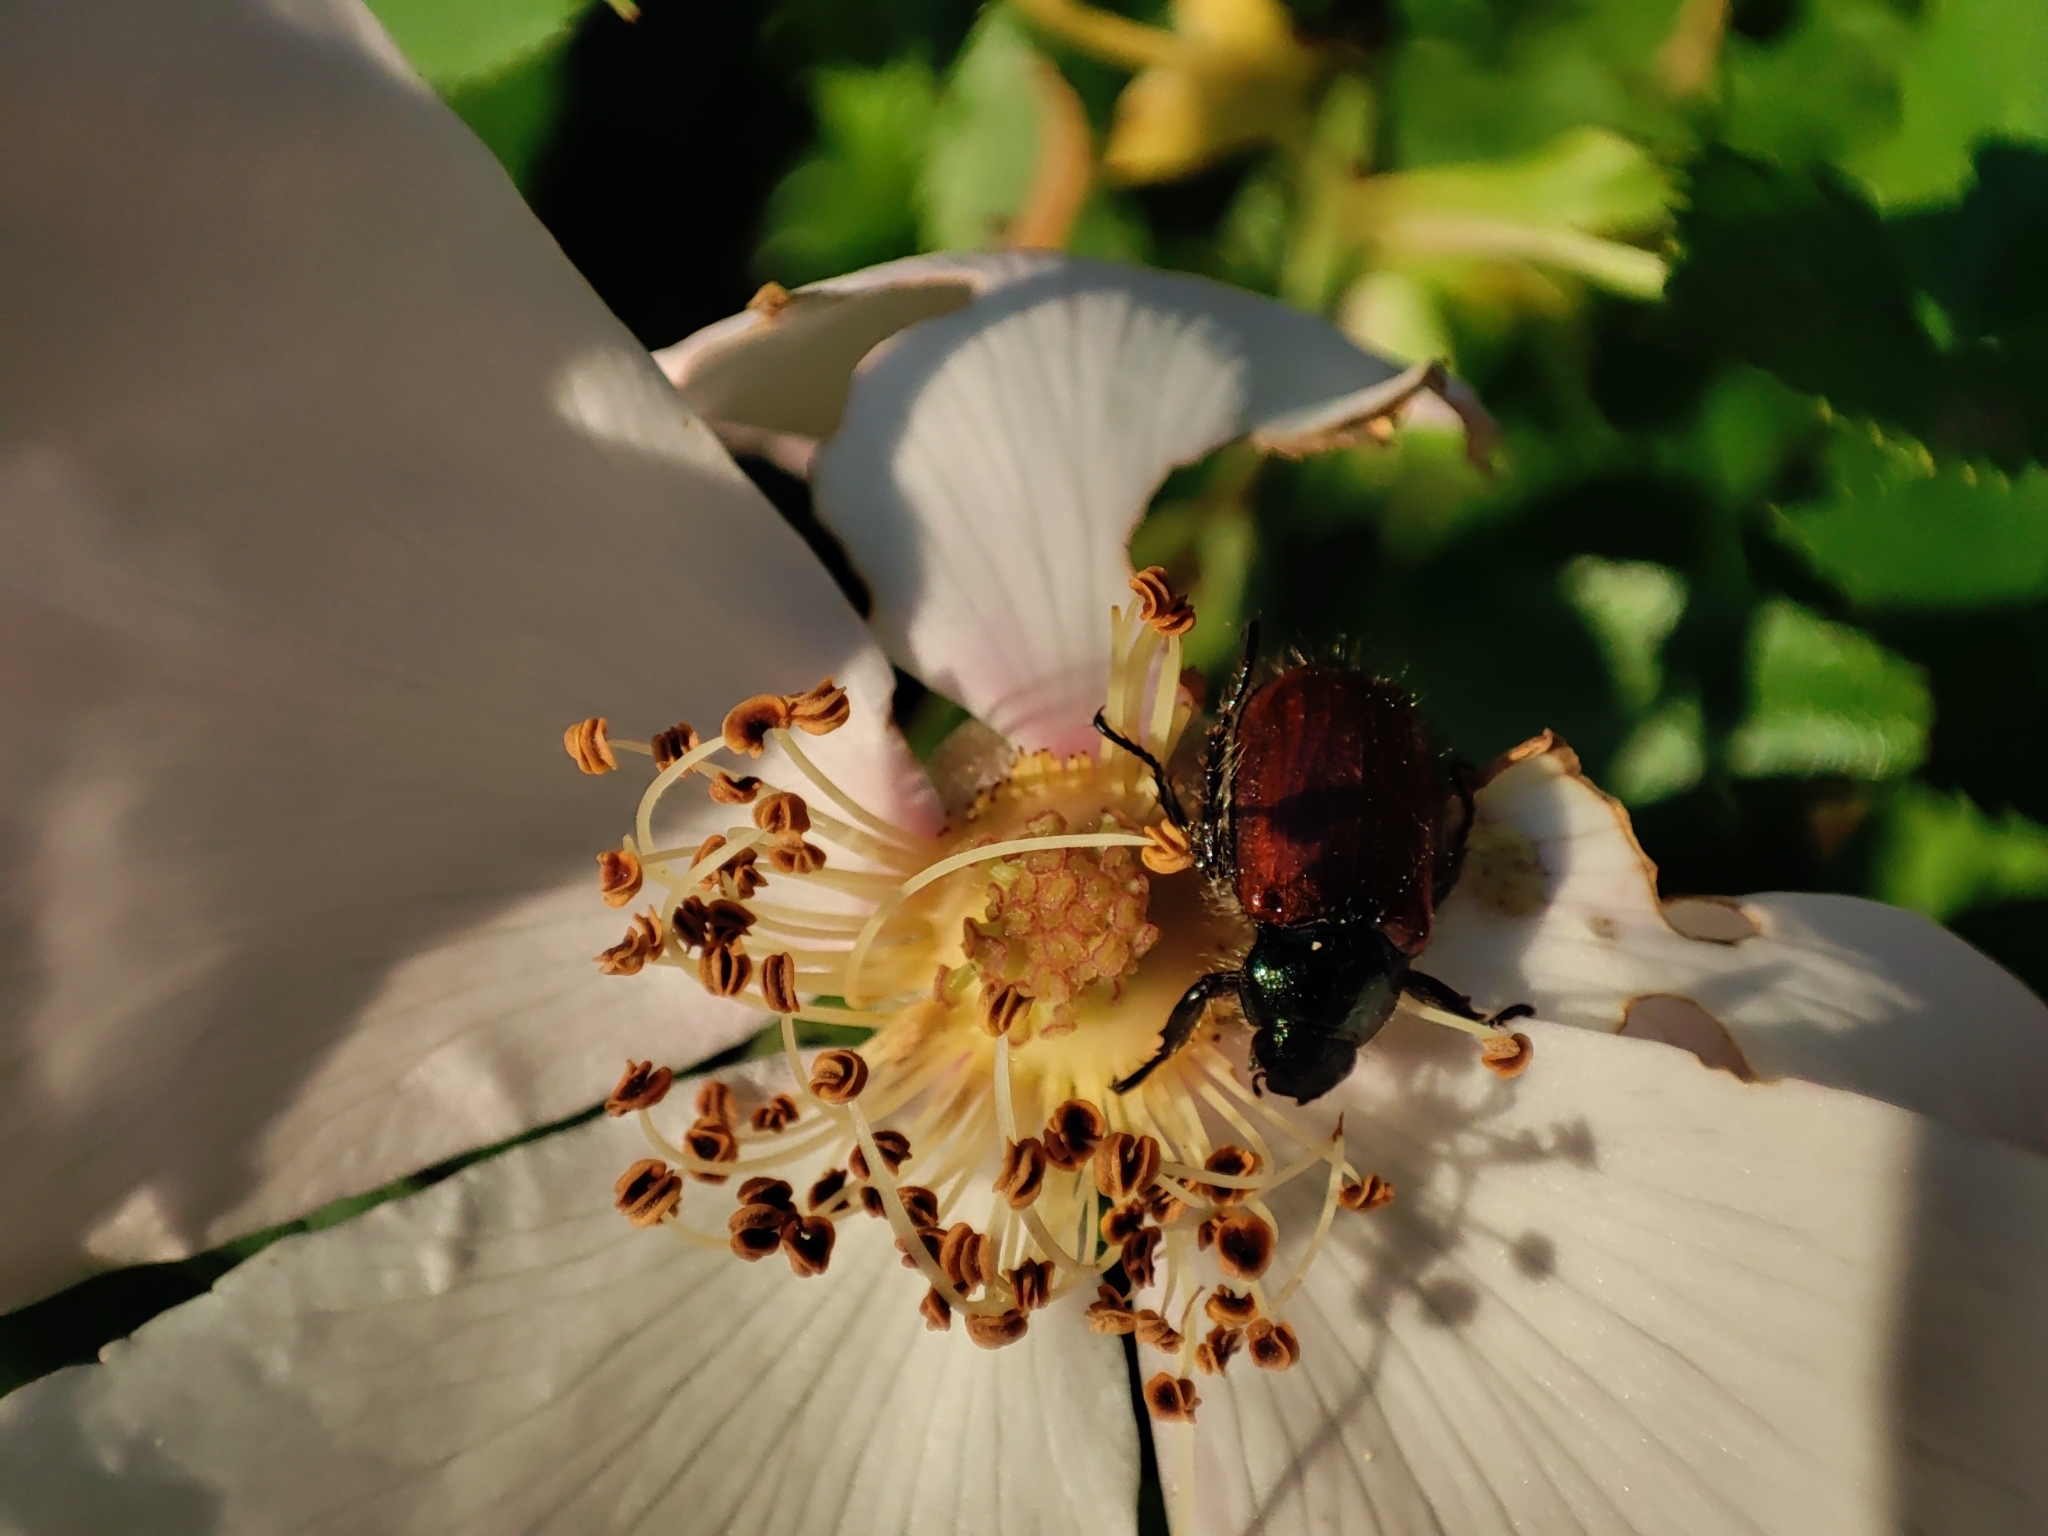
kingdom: Animalia
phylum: Arthropoda
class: Insecta
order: Coleoptera
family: Scarabaeidae
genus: Phyllopertha
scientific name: Phyllopertha horticola
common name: Garden chafer
